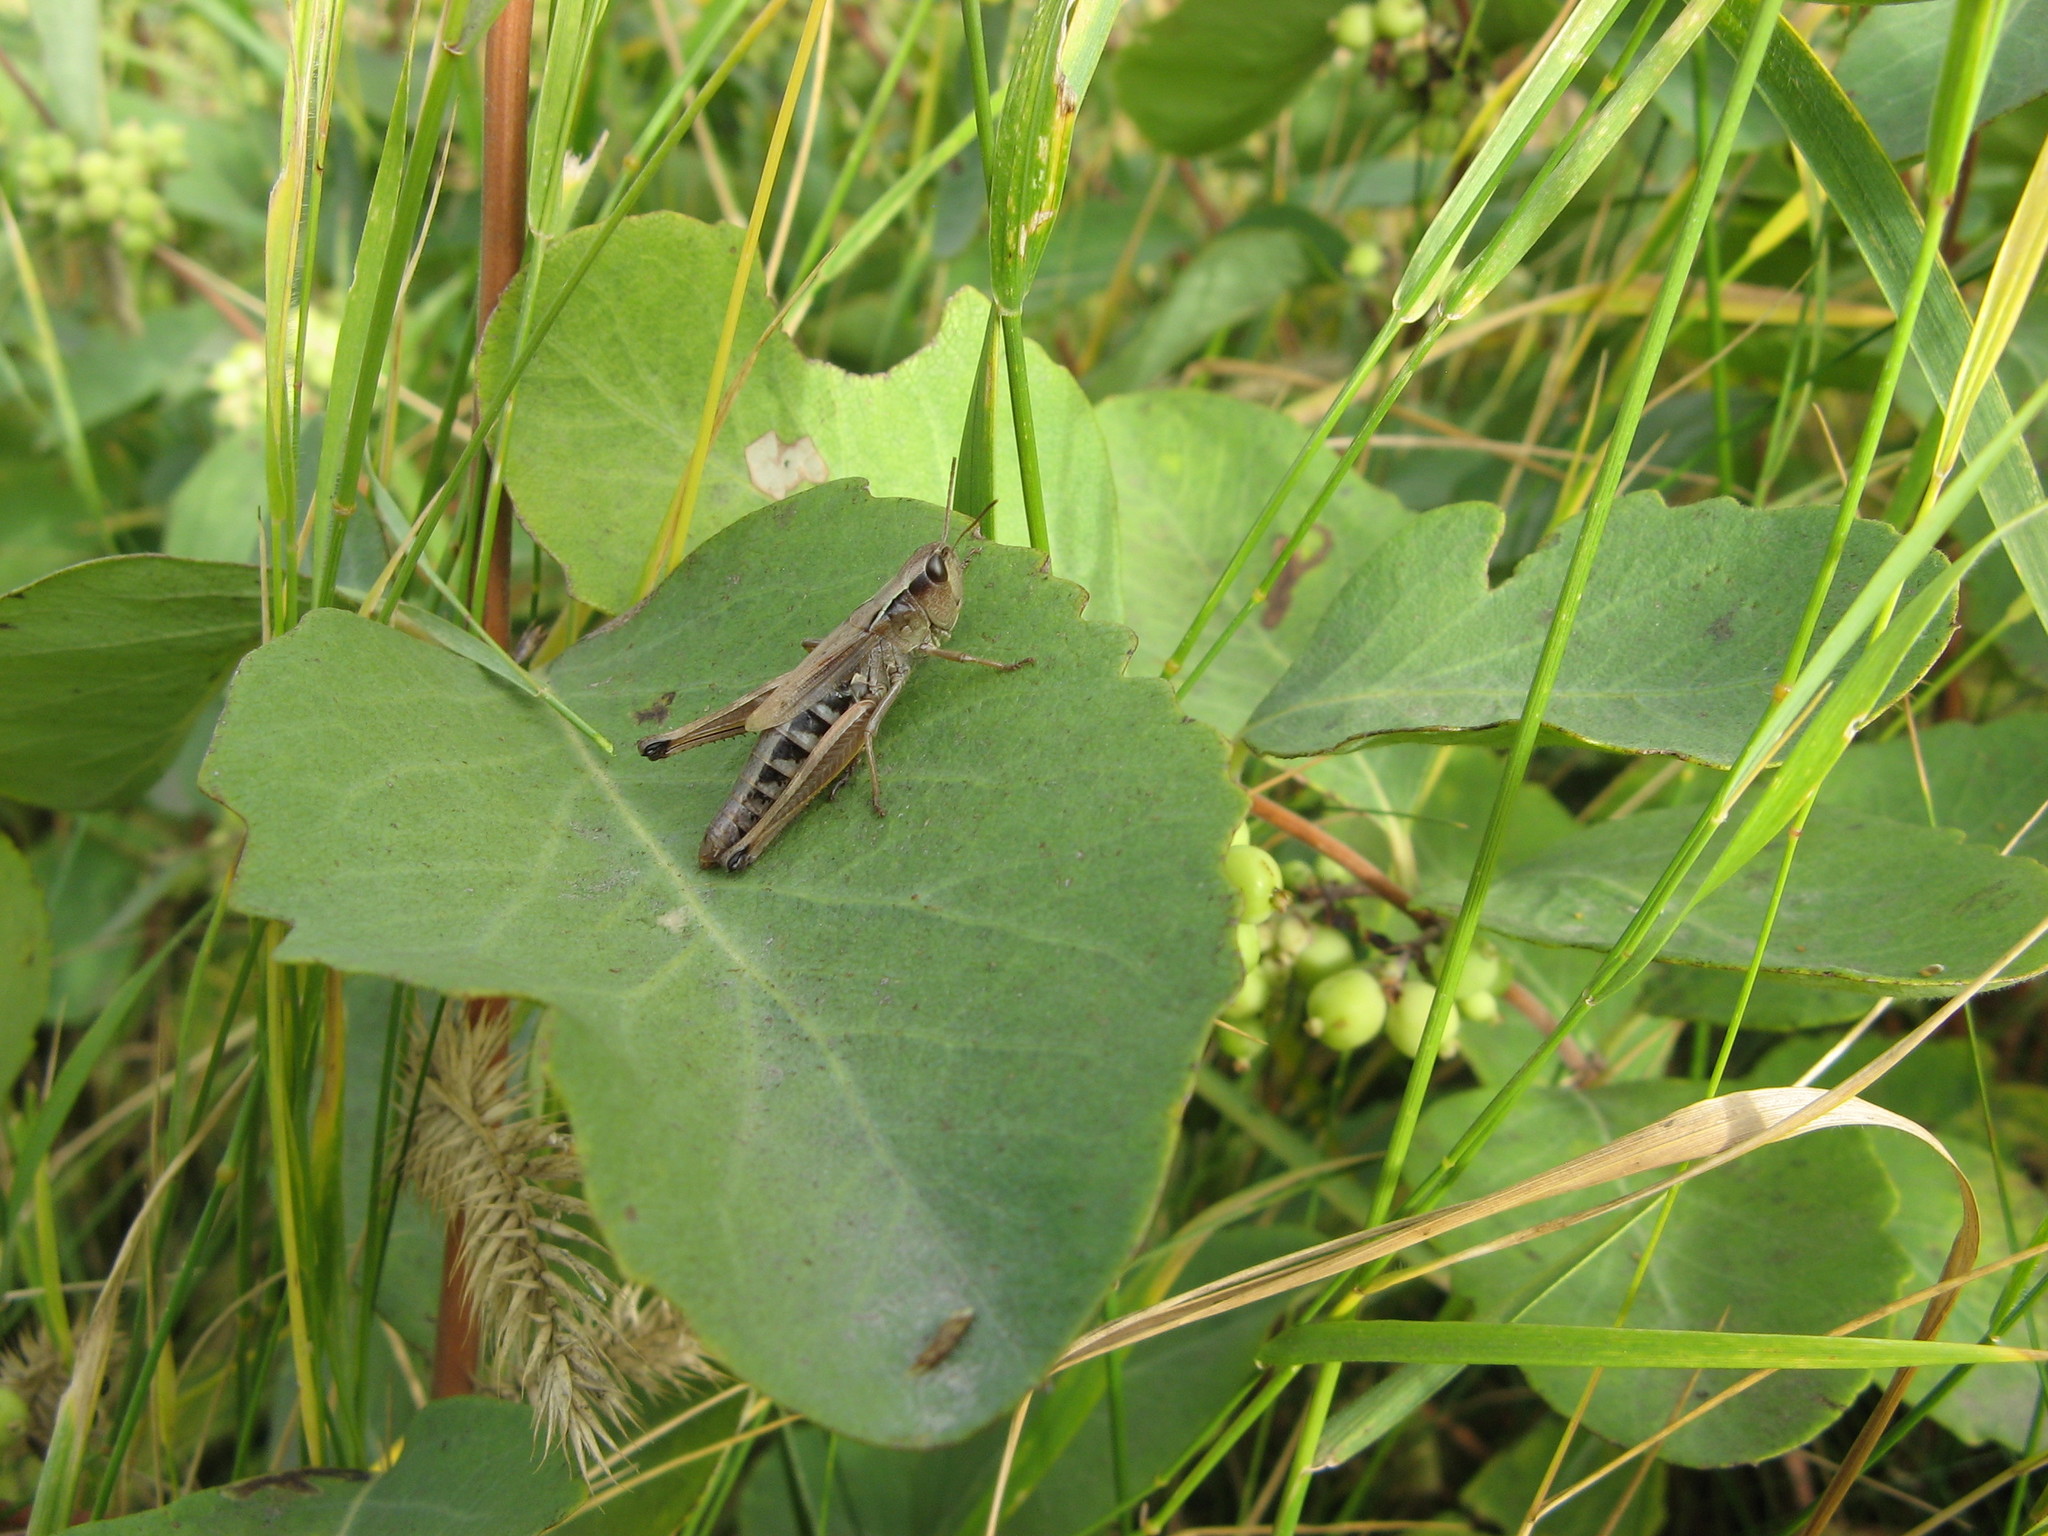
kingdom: Animalia
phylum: Arthropoda
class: Insecta
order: Orthoptera
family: Acrididae
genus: Pseudochorthippus
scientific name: Pseudochorthippus curtipennis
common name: Marsh meadow grasshopper
